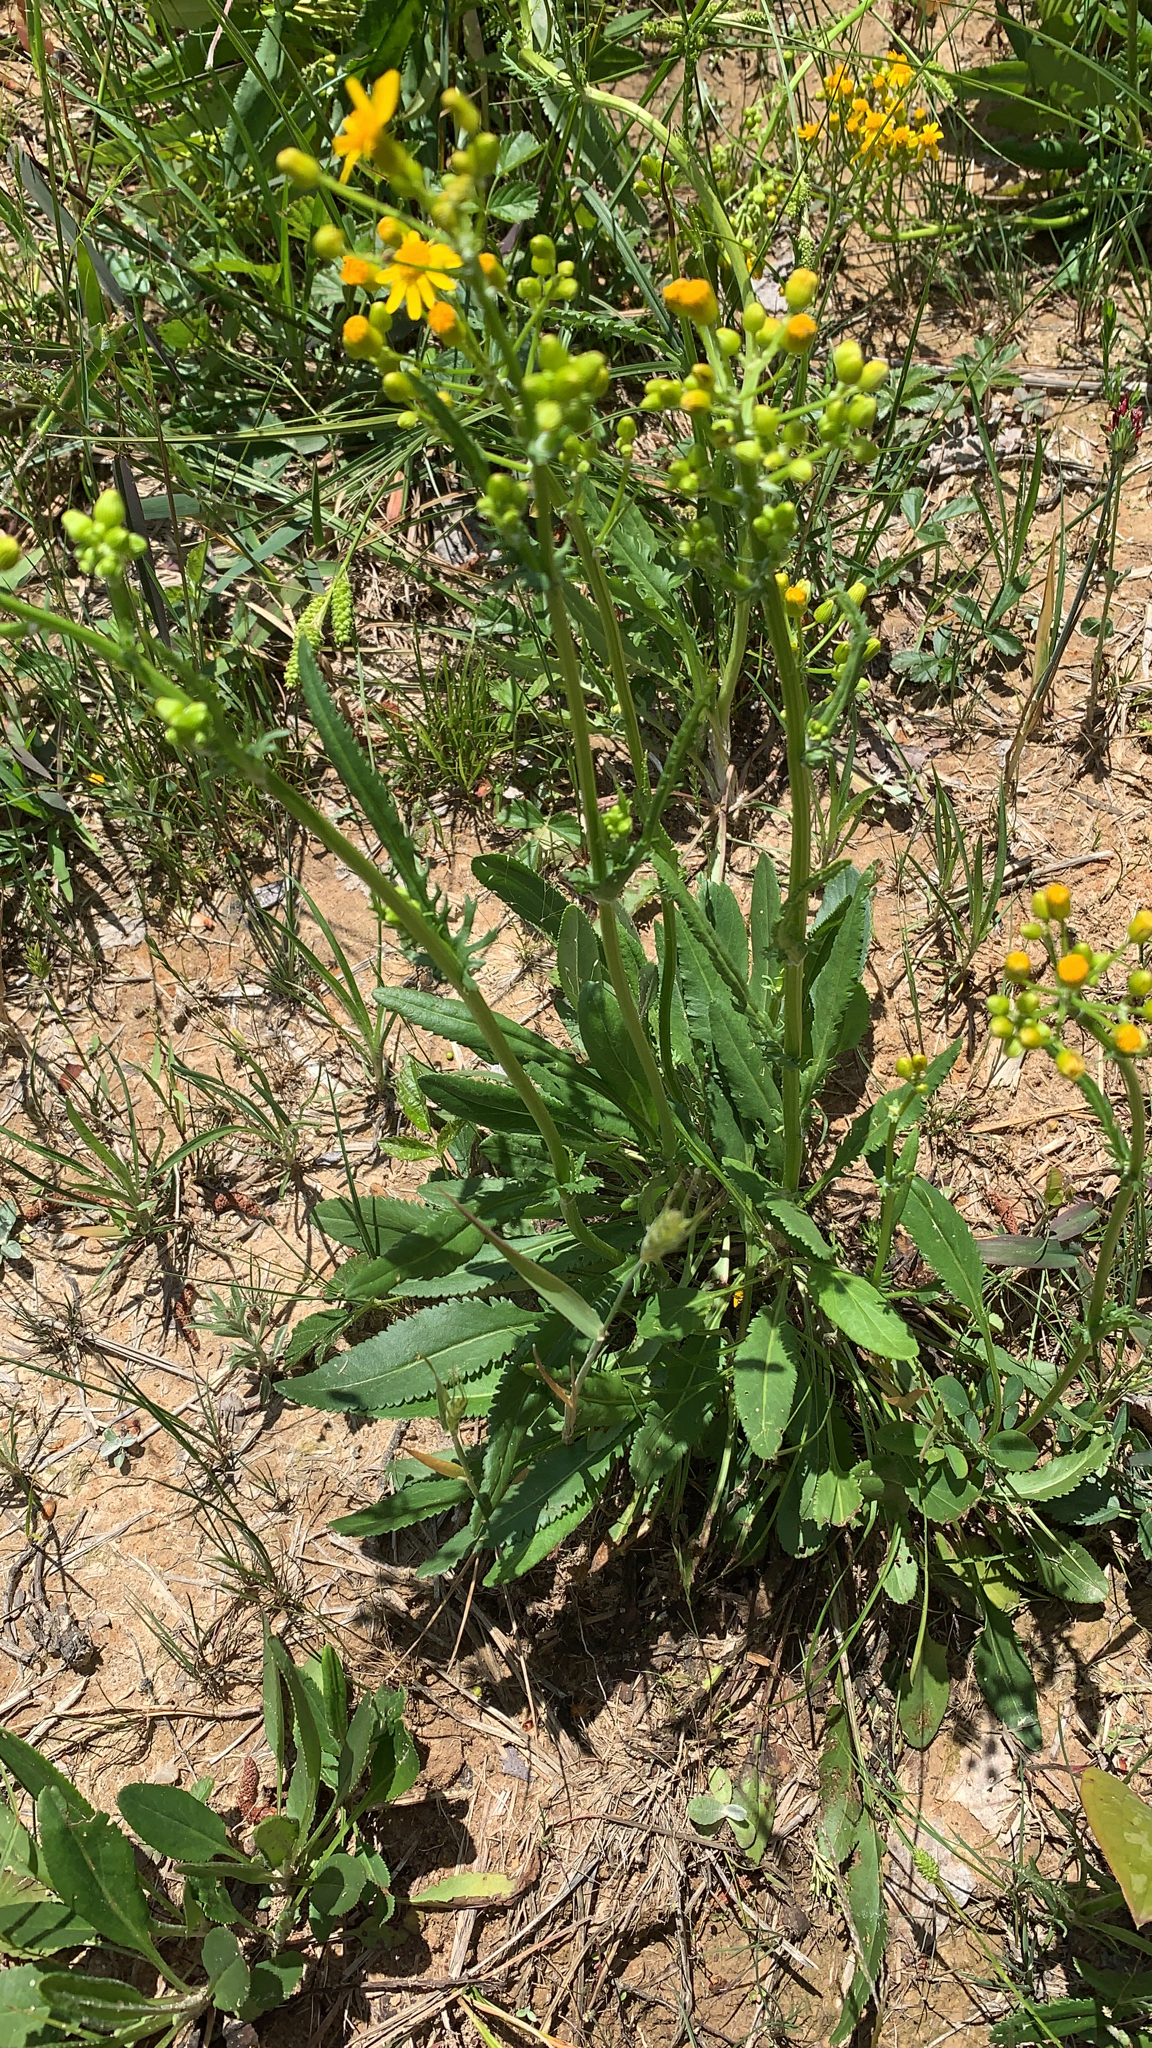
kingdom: Plantae
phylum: Tracheophyta
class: Magnoliopsida
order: Asterales
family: Asteraceae
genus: Packera
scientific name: Packera anonyma
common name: Small ragwort
